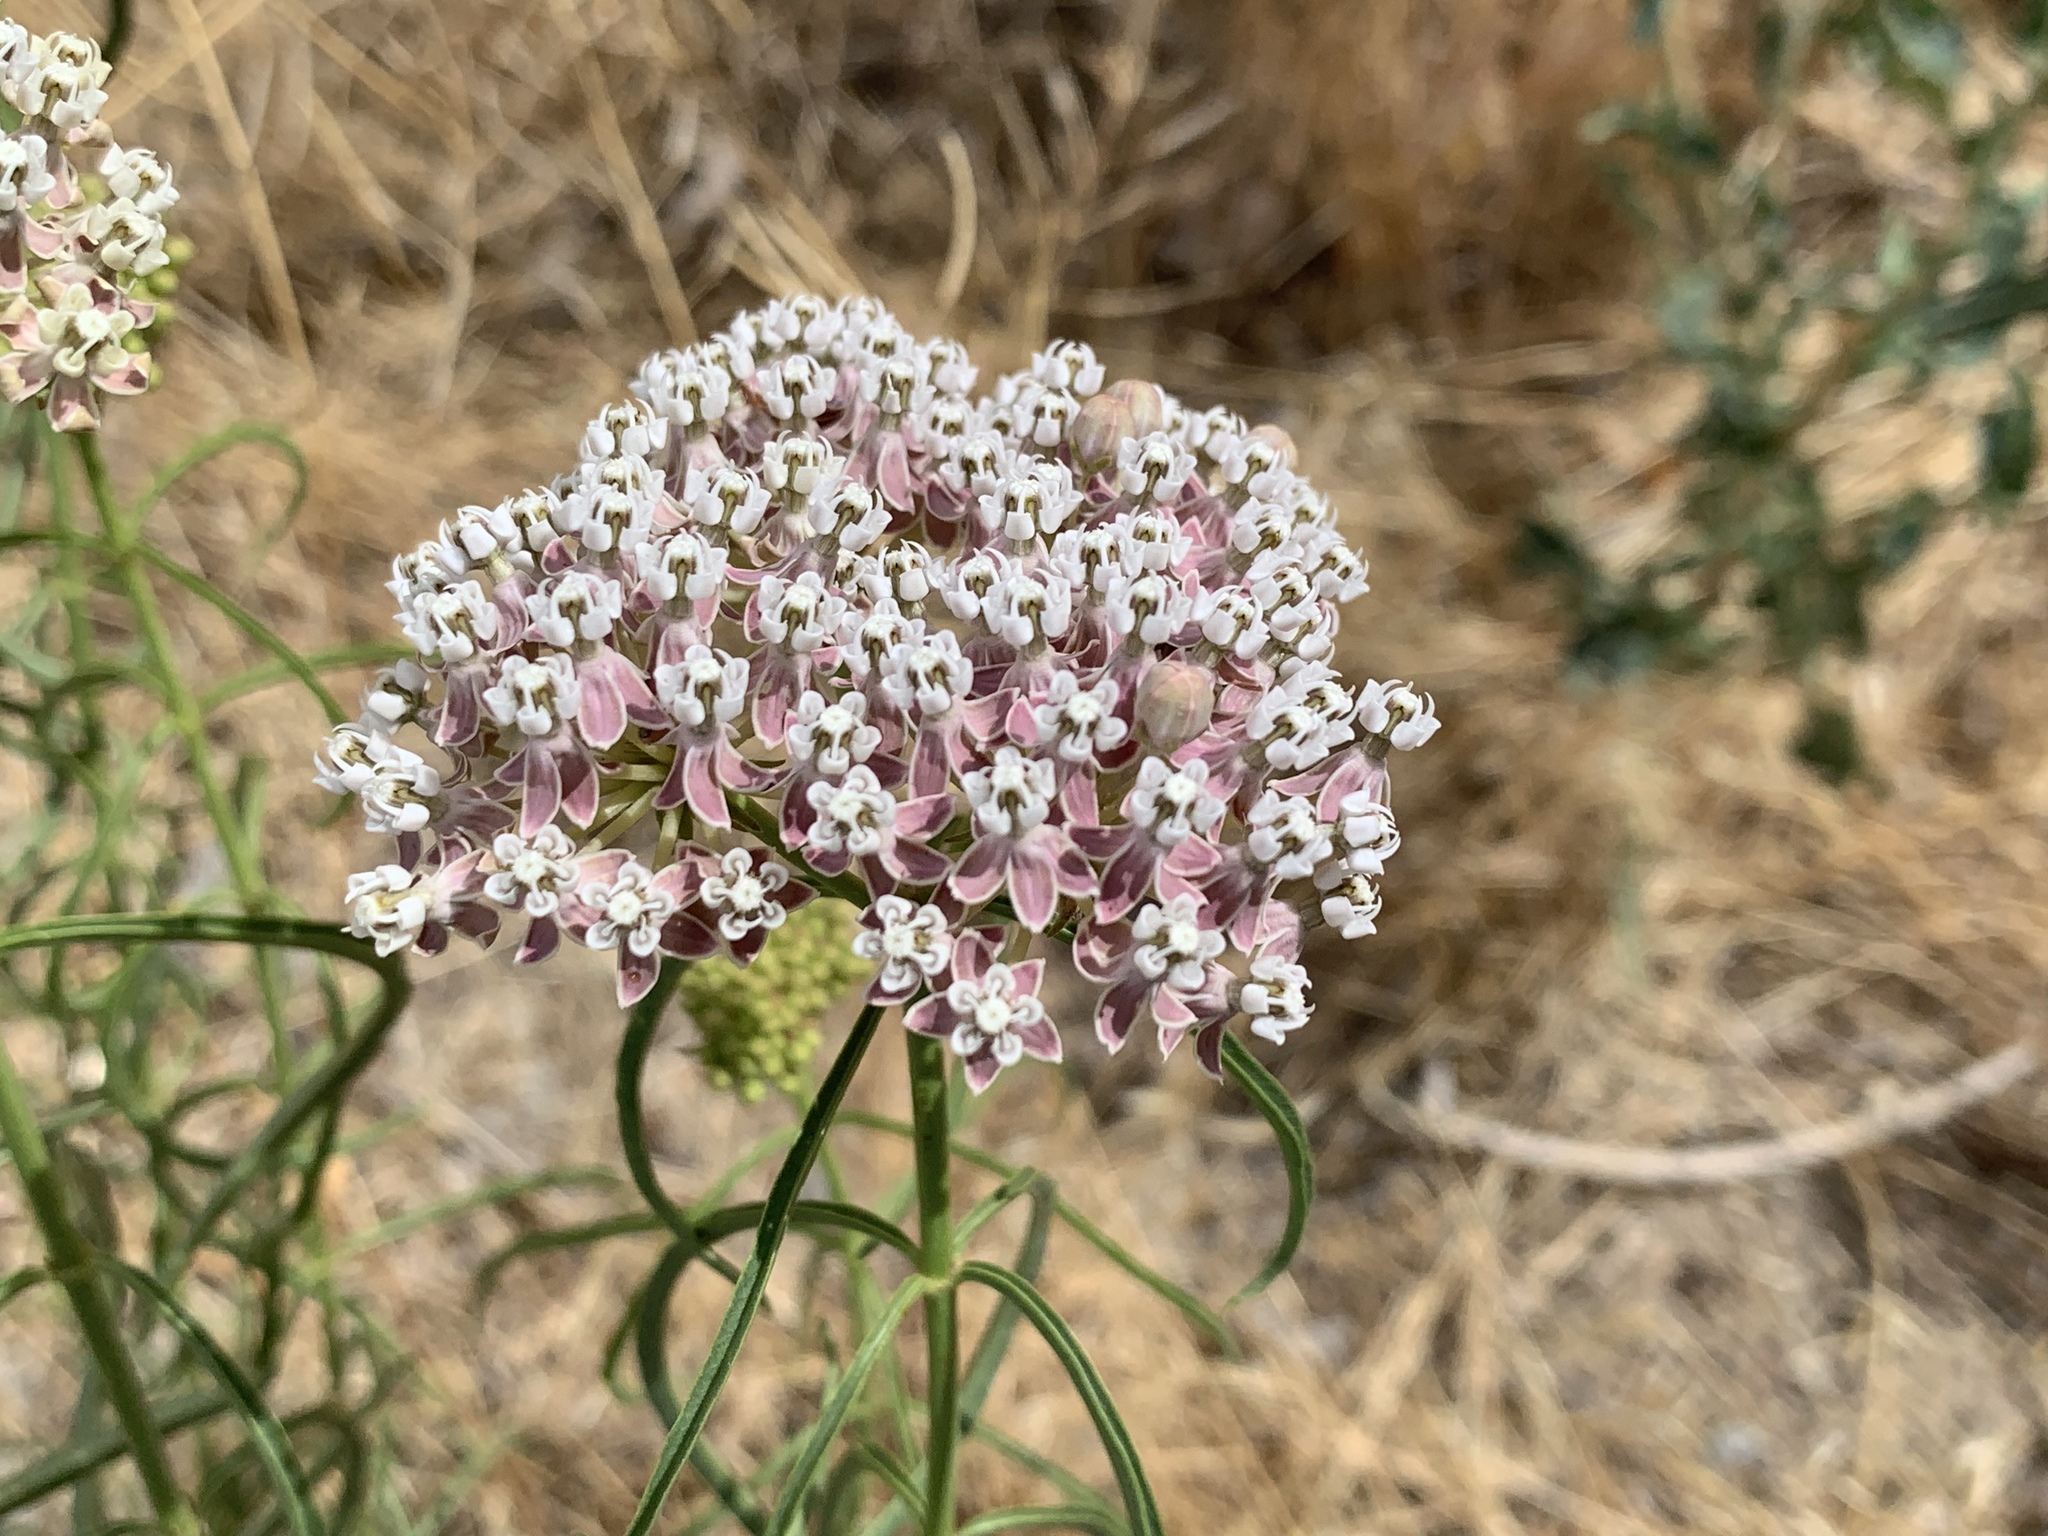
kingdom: Plantae
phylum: Tracheophyta
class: Magnoliopsida
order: Gentianales
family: Apocynaceae
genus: Asclepias
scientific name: Asclepias fascicularis
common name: Mexican milkweed
